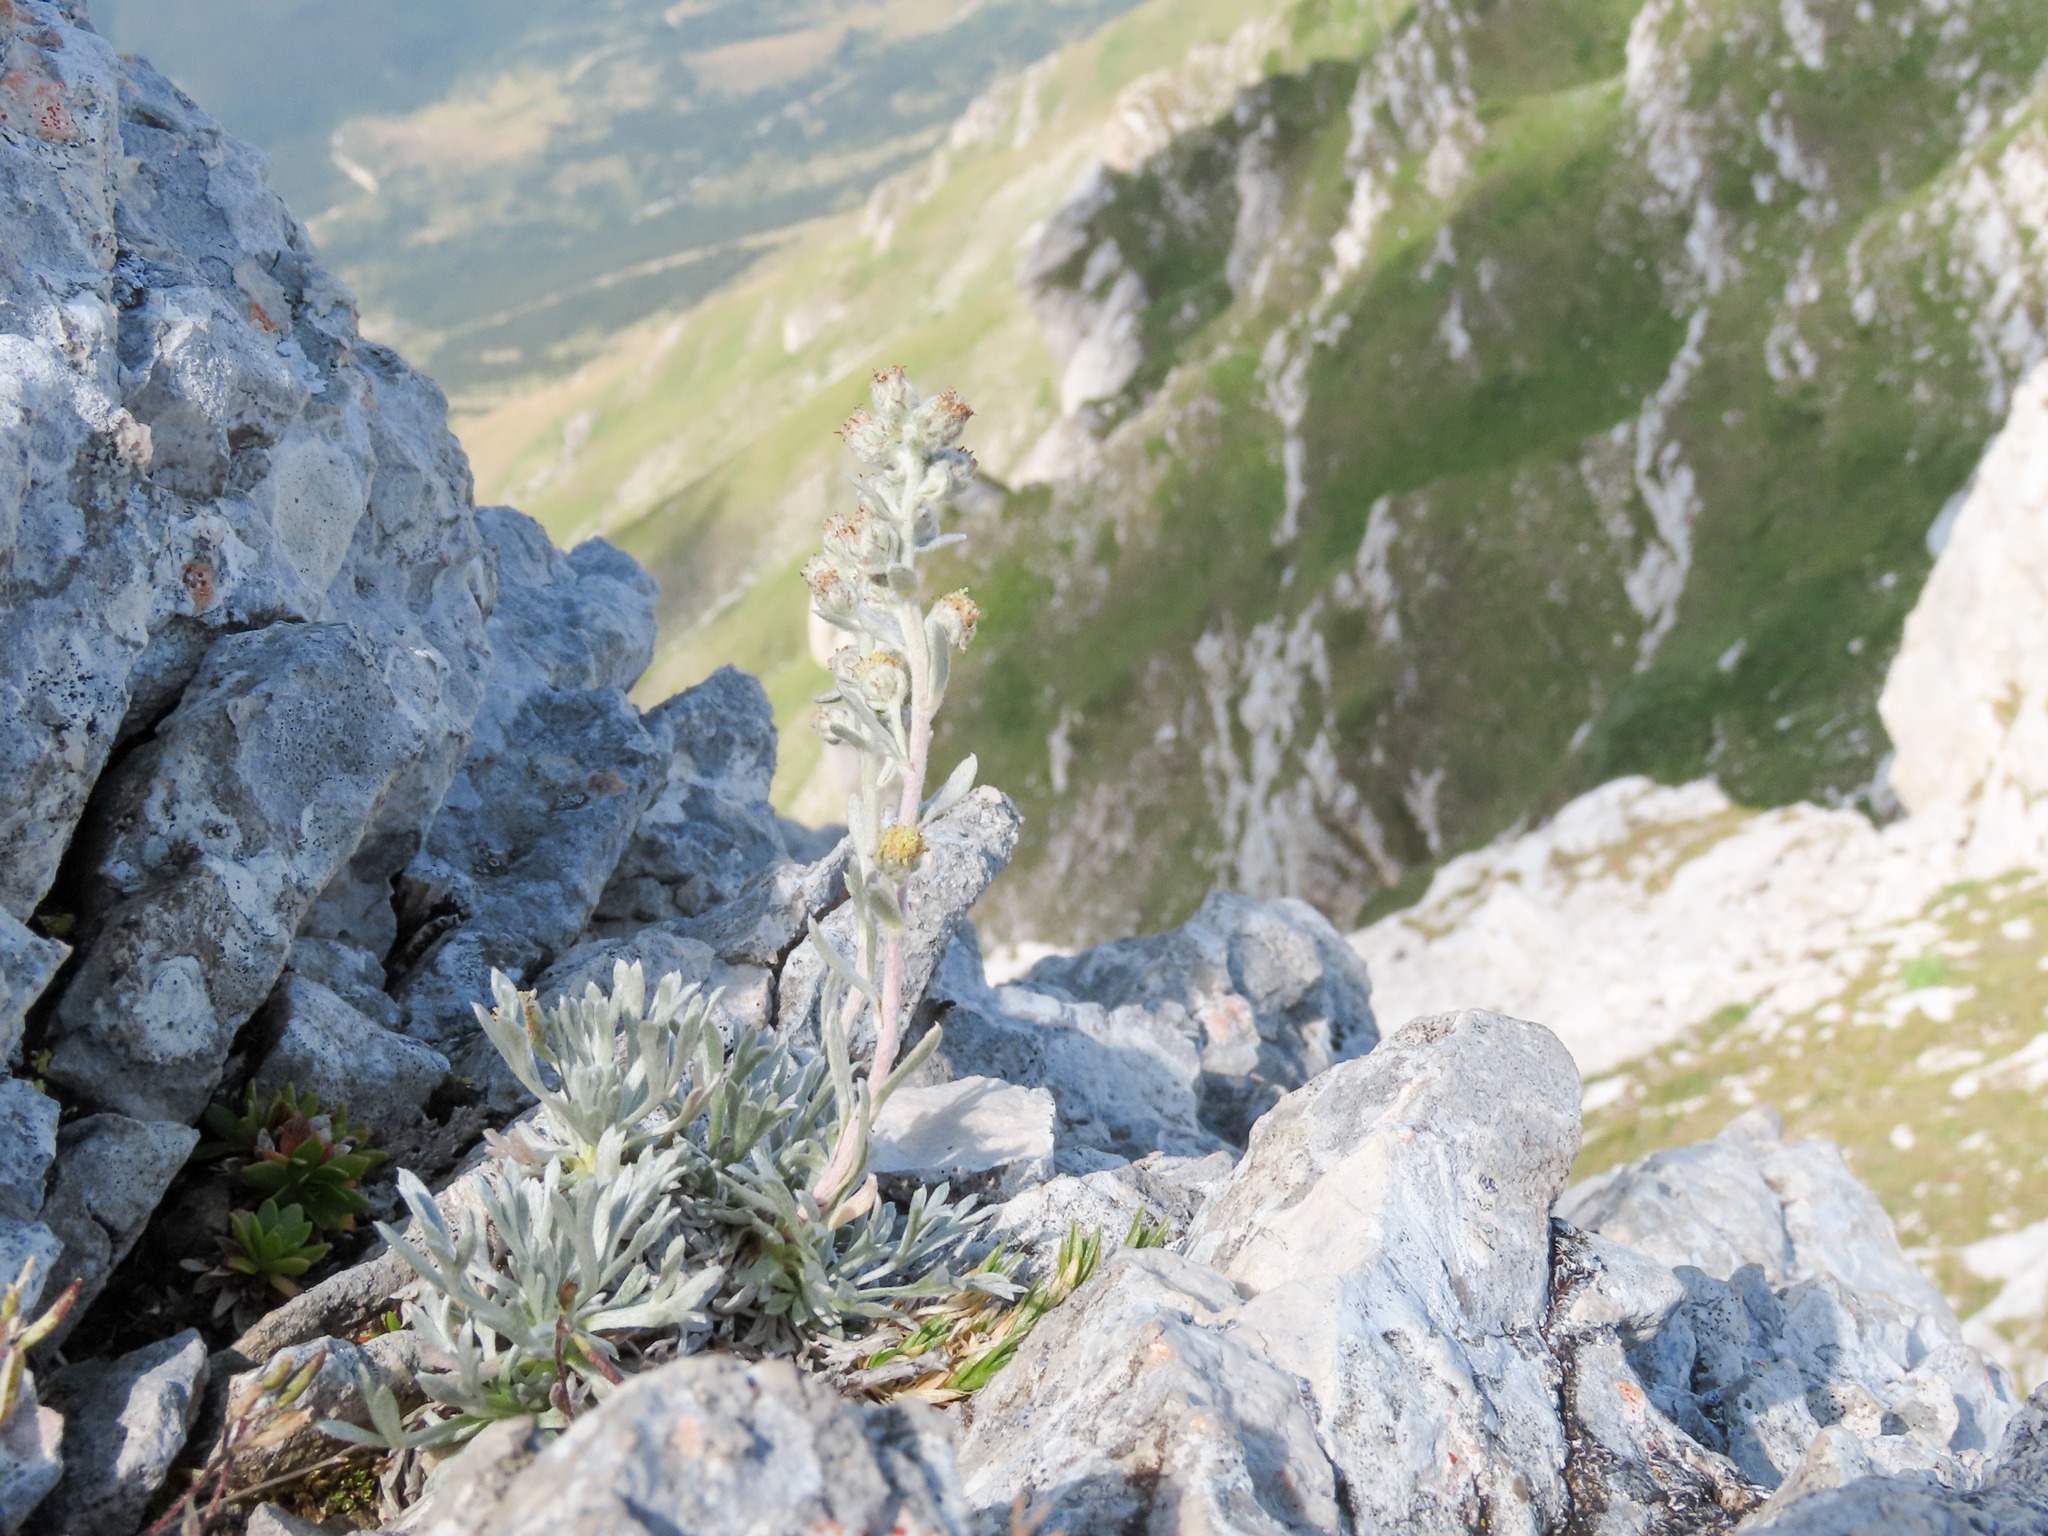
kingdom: Plantae
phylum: Tracheophyta
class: Magnoliopsida
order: Asterales
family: Asteraceae
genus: Artemisia
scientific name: Artemisia eriantha
